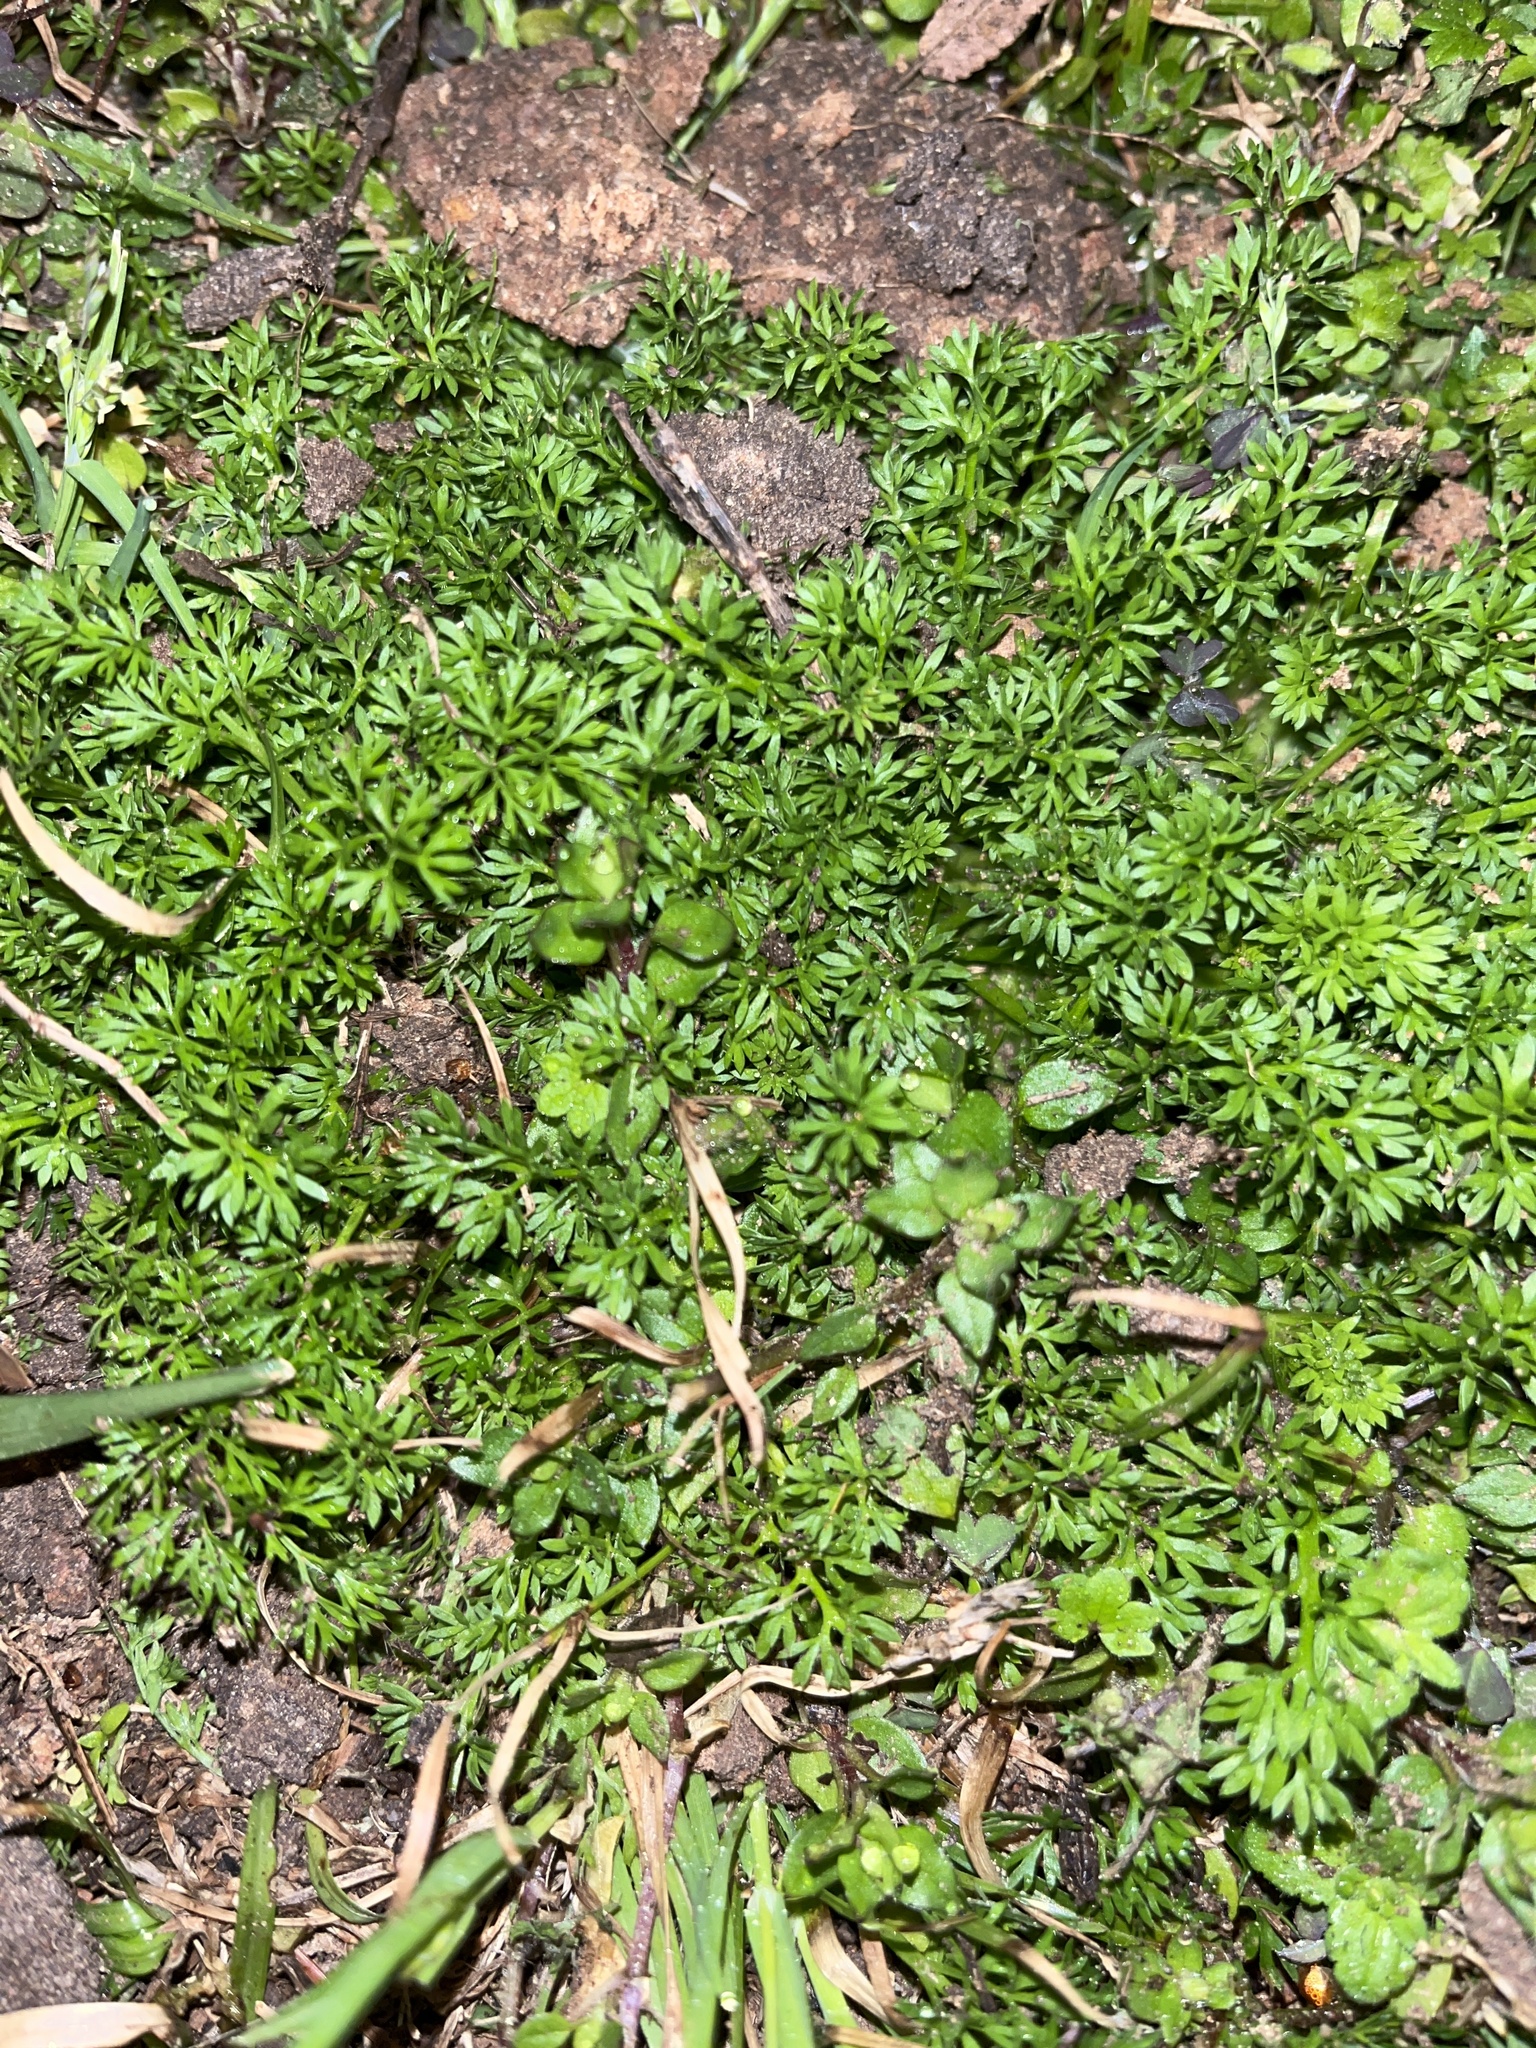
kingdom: Plantae
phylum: Tracheophyta
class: Magnoliopsida
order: Asterales
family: Asteraceae
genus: Soliva
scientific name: Soliva sessilis
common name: Field burrweed
